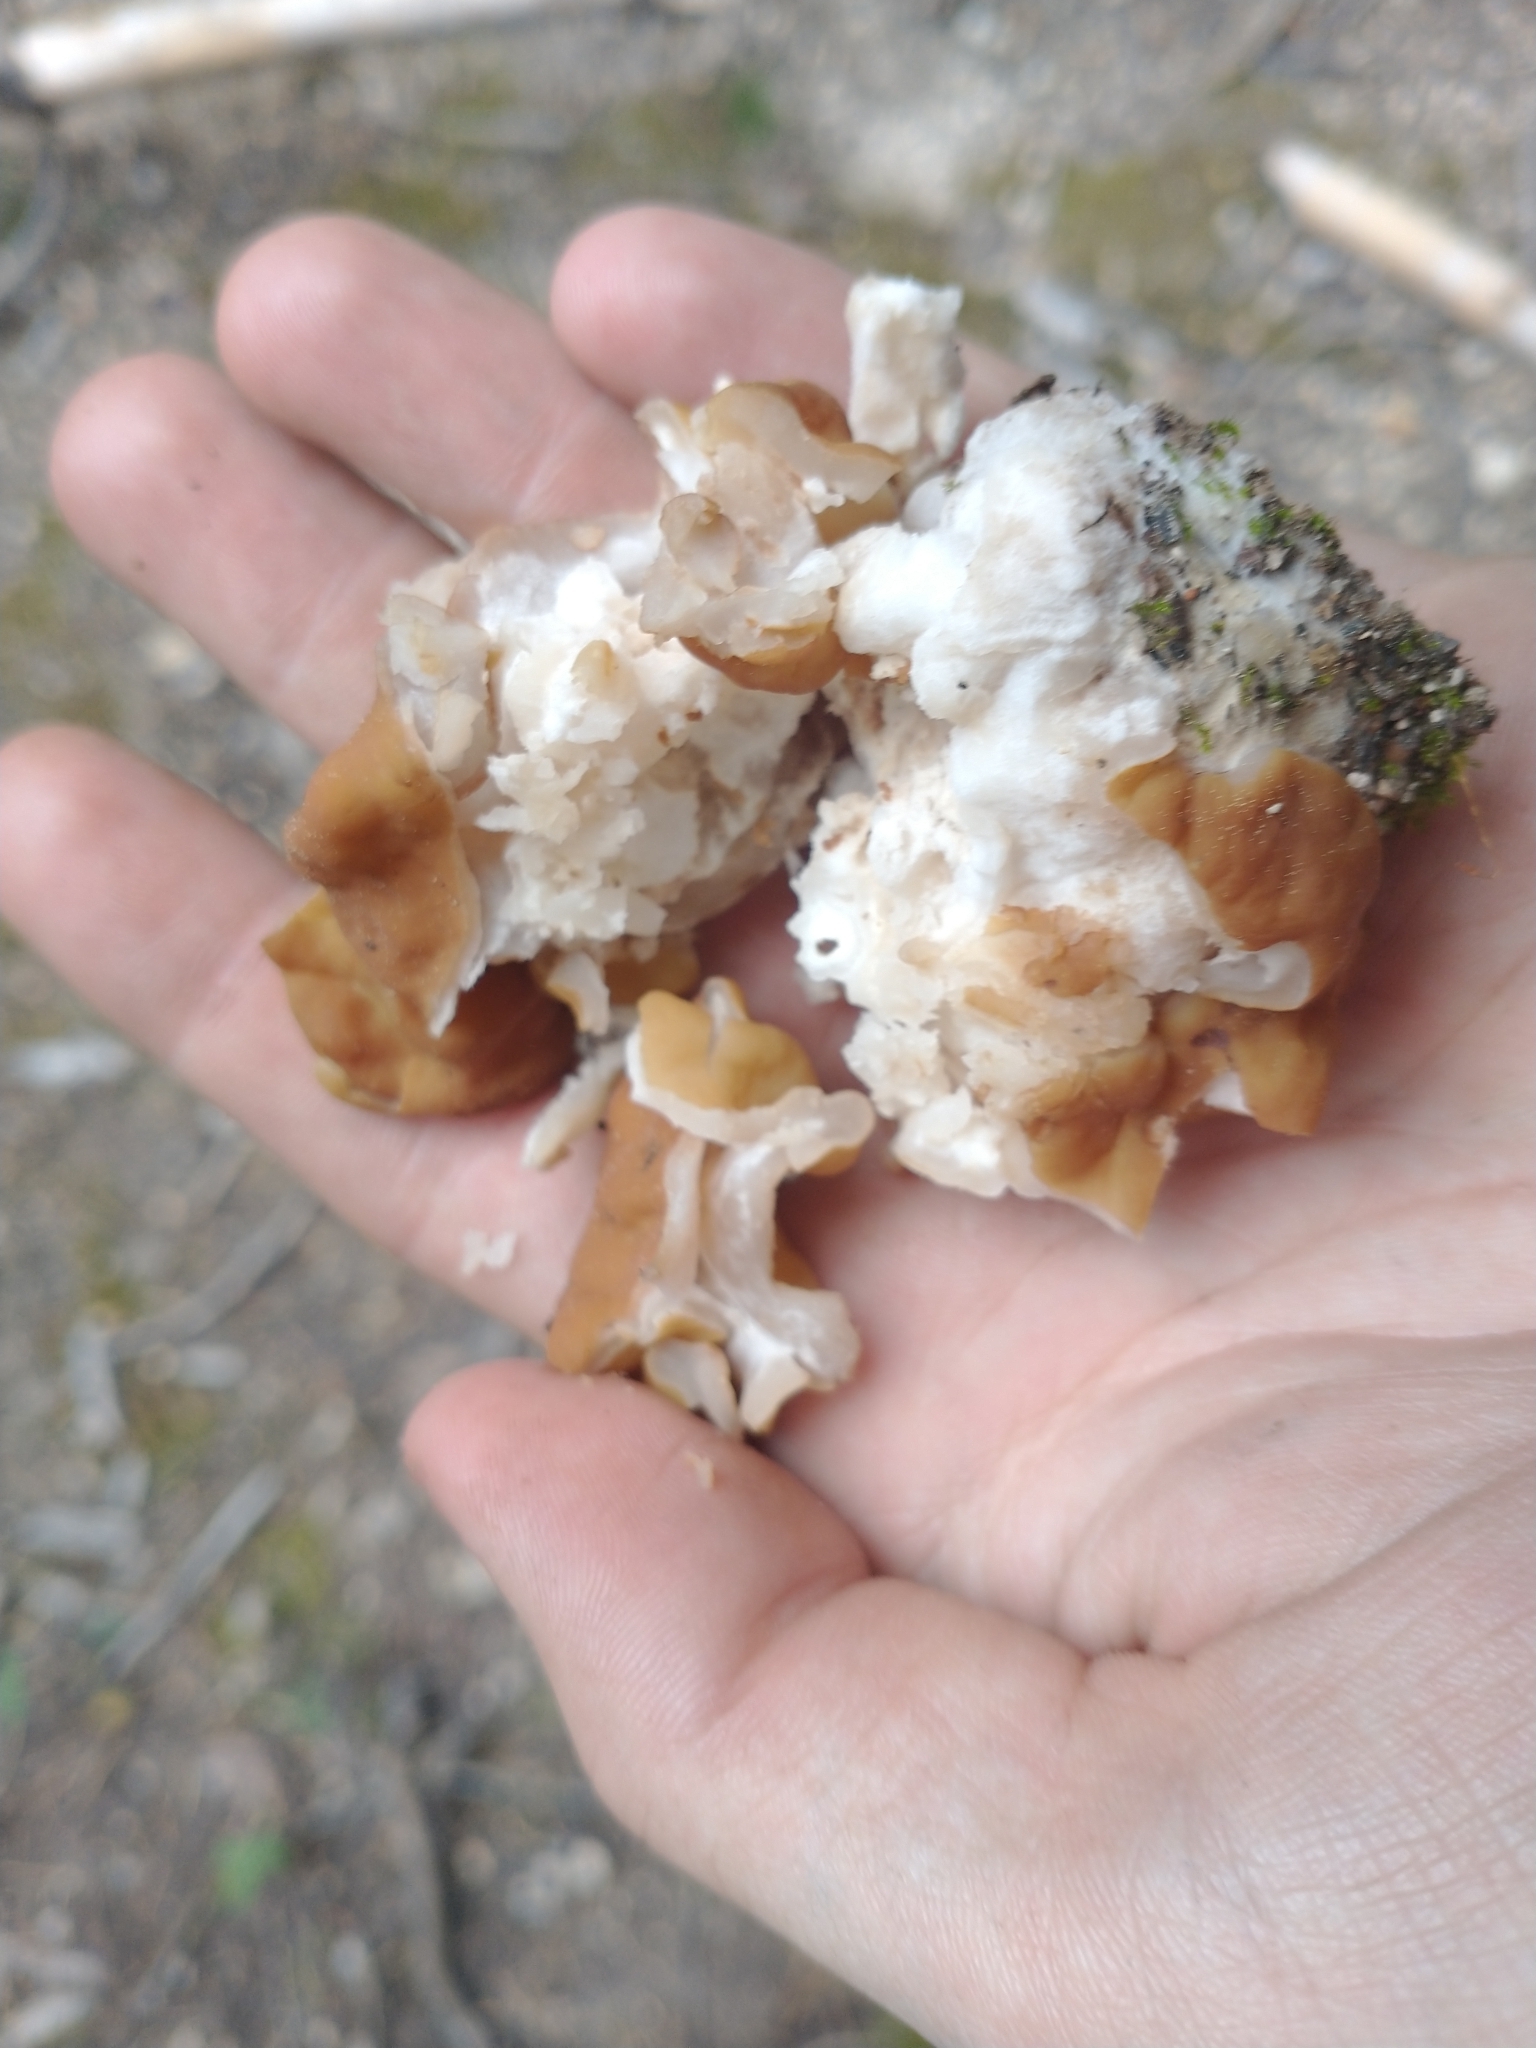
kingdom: Fungi
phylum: Ascomycota
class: Pezizomycetes
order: Pezizales
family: Discinaceae
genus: Discina
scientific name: Discina montana
